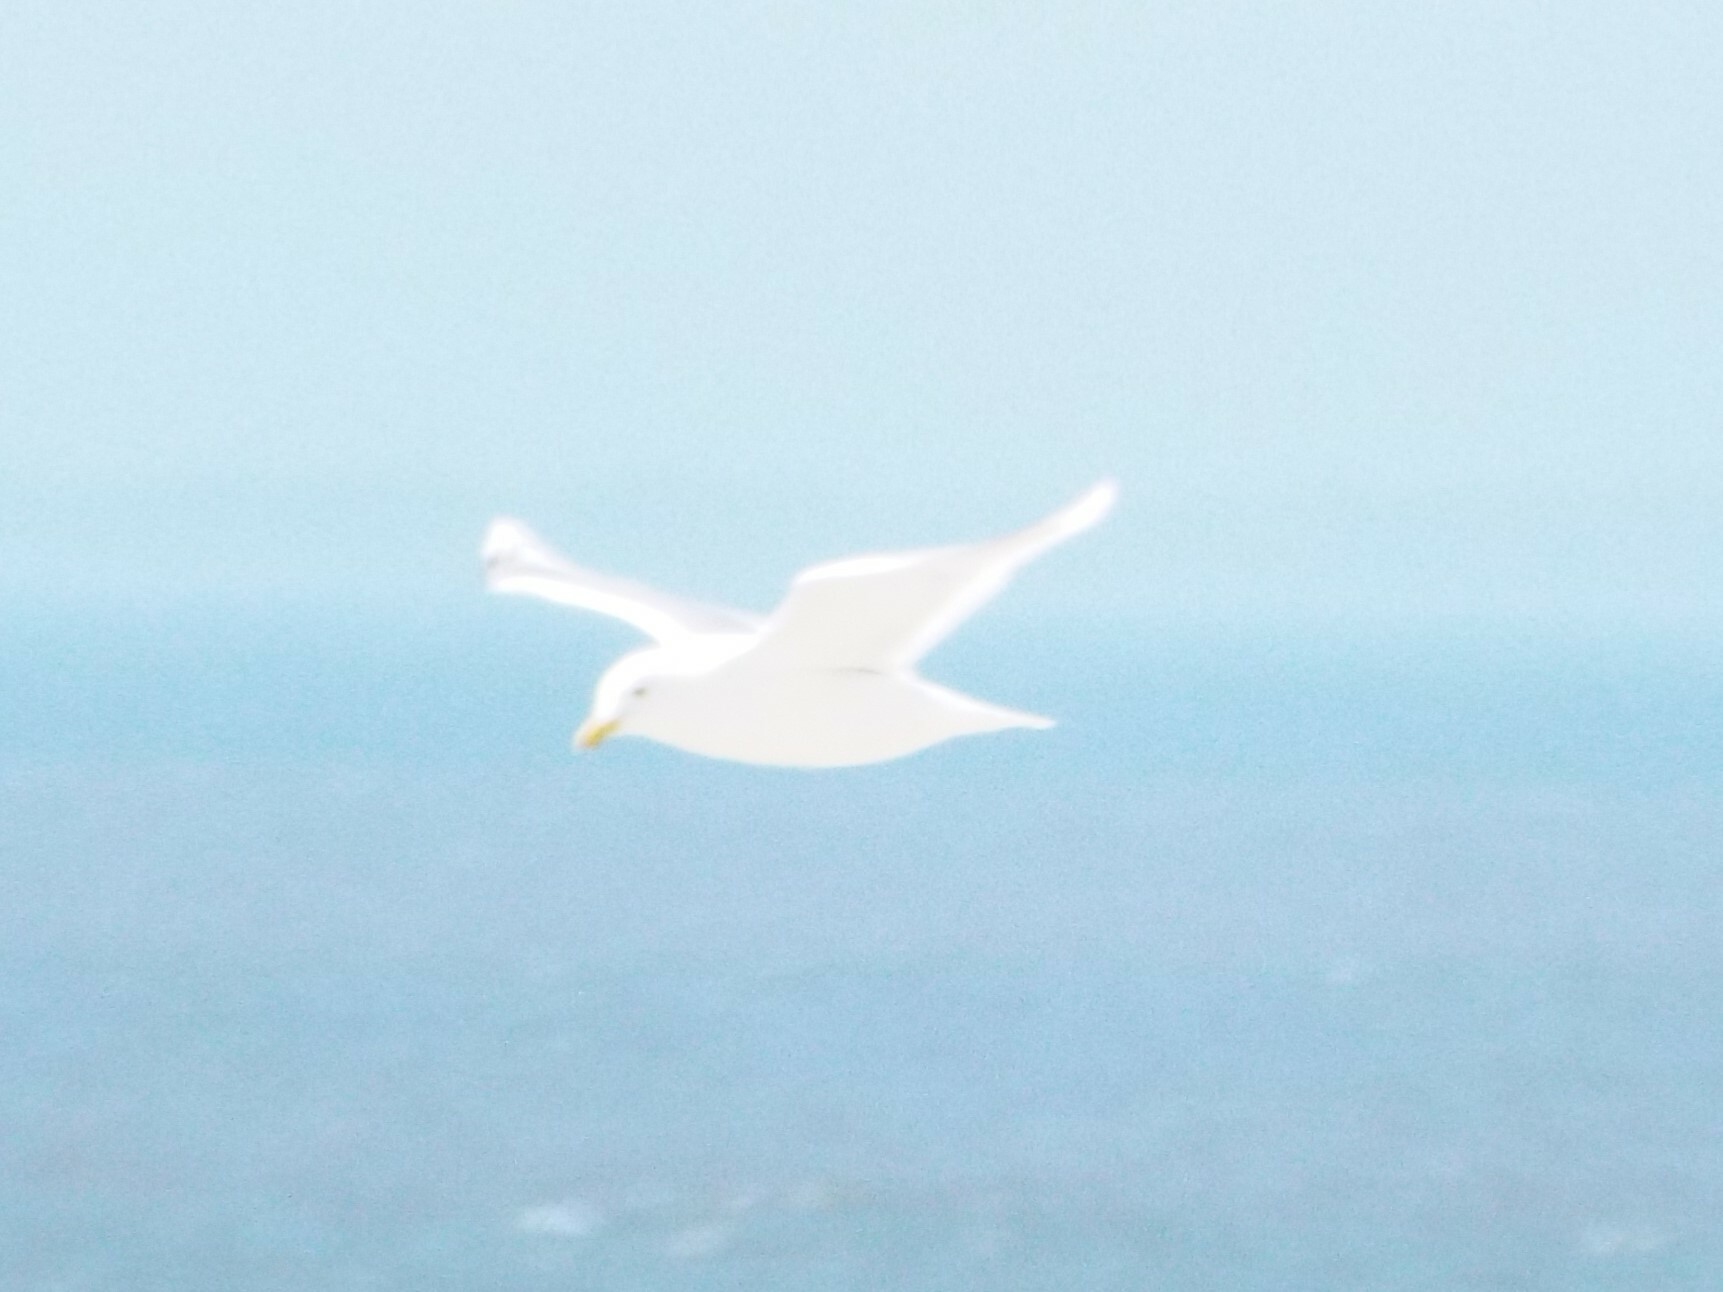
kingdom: Animalia
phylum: Chordata
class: Aves
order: Charadriiformes
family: Laridae
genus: Larus
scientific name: Larus glaucoides
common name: Iceland gull
